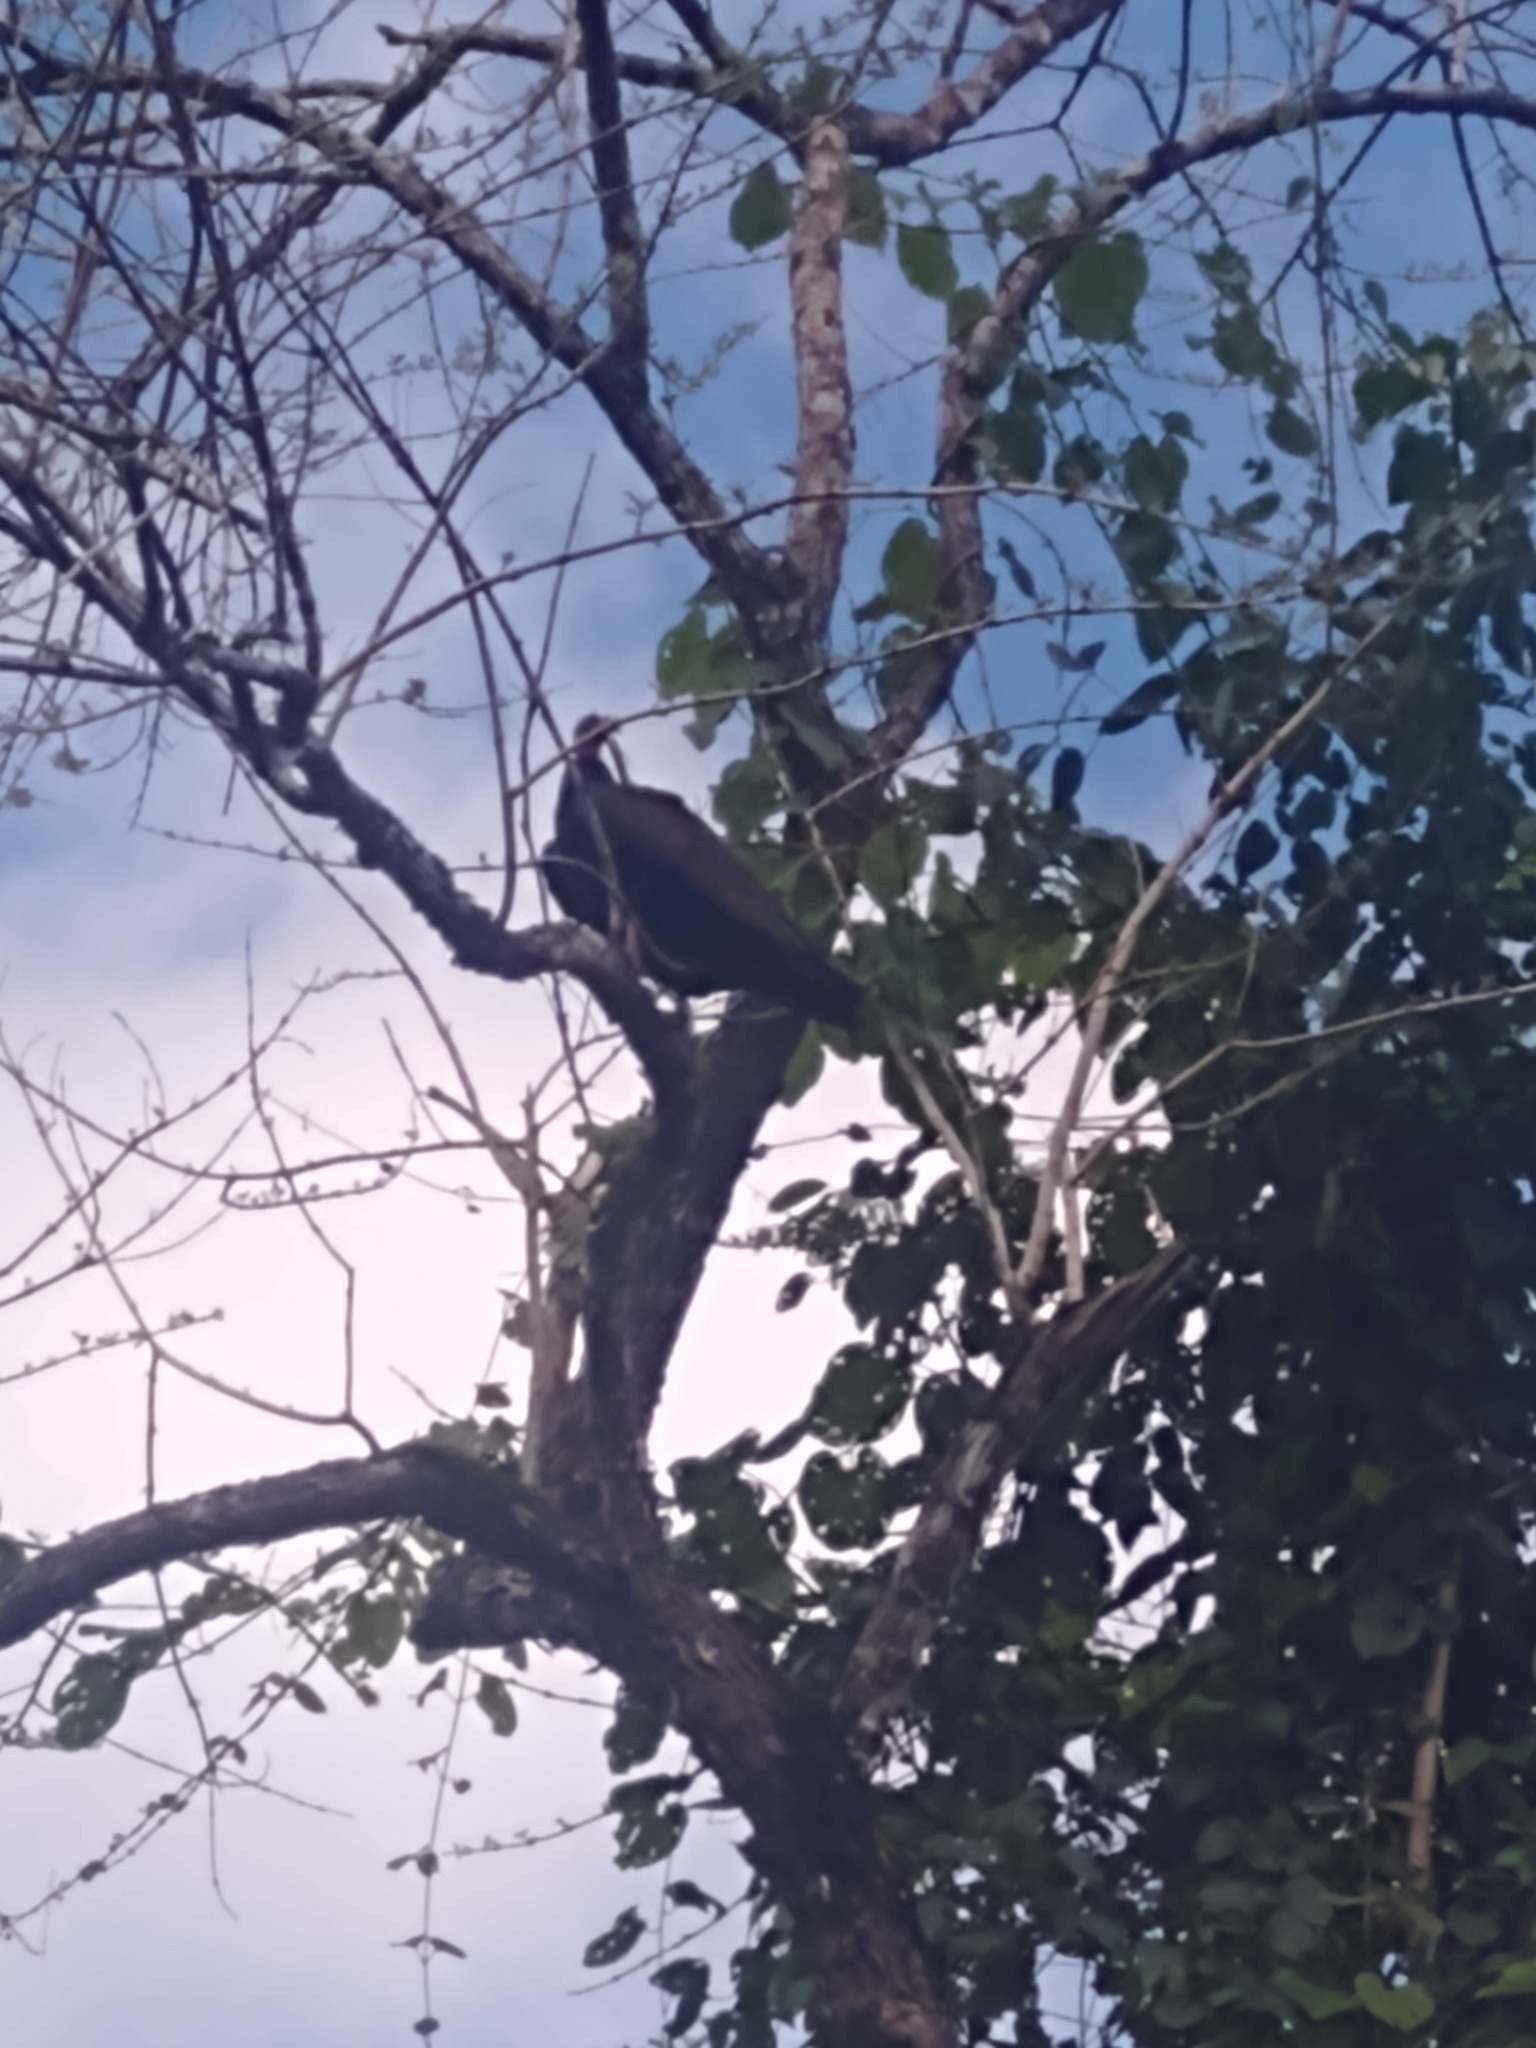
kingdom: Animalia
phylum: Chordata
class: Aves
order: Accipitriformes
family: Cathartidae
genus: Cathartes
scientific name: Cathartes aura
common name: Turkey vulture
